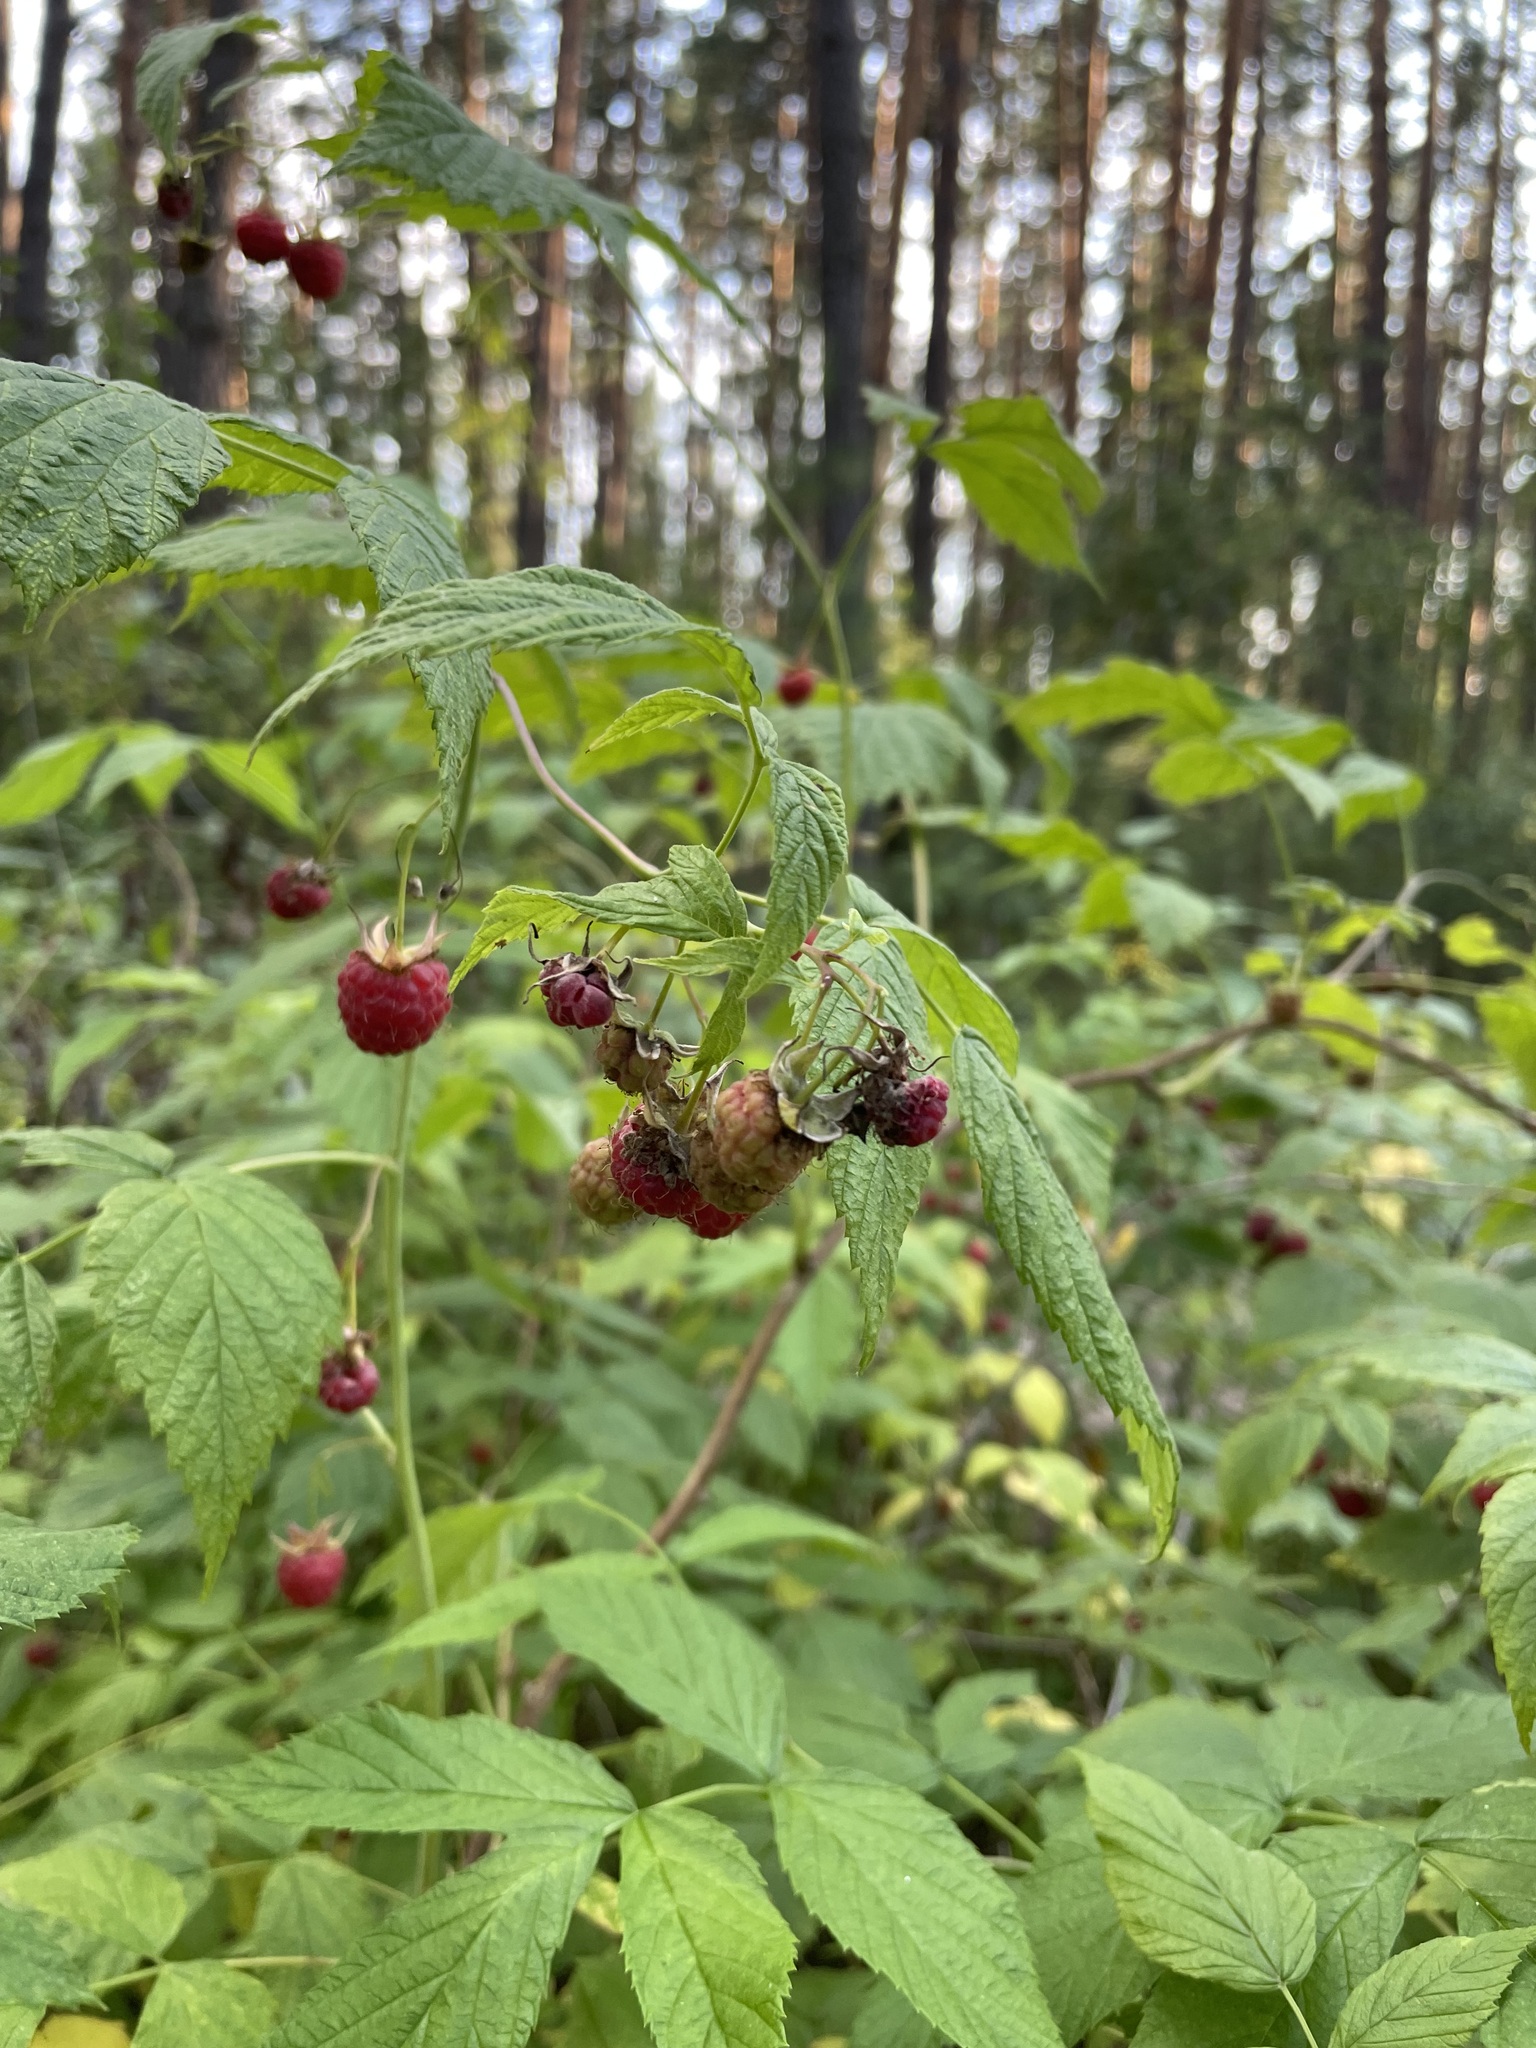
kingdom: Plantae
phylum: Tracheophyta
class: Magnoliopsida
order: Rosales
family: Rosaceae
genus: Rubus
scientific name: Rubus idaeus
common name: Raspberry
